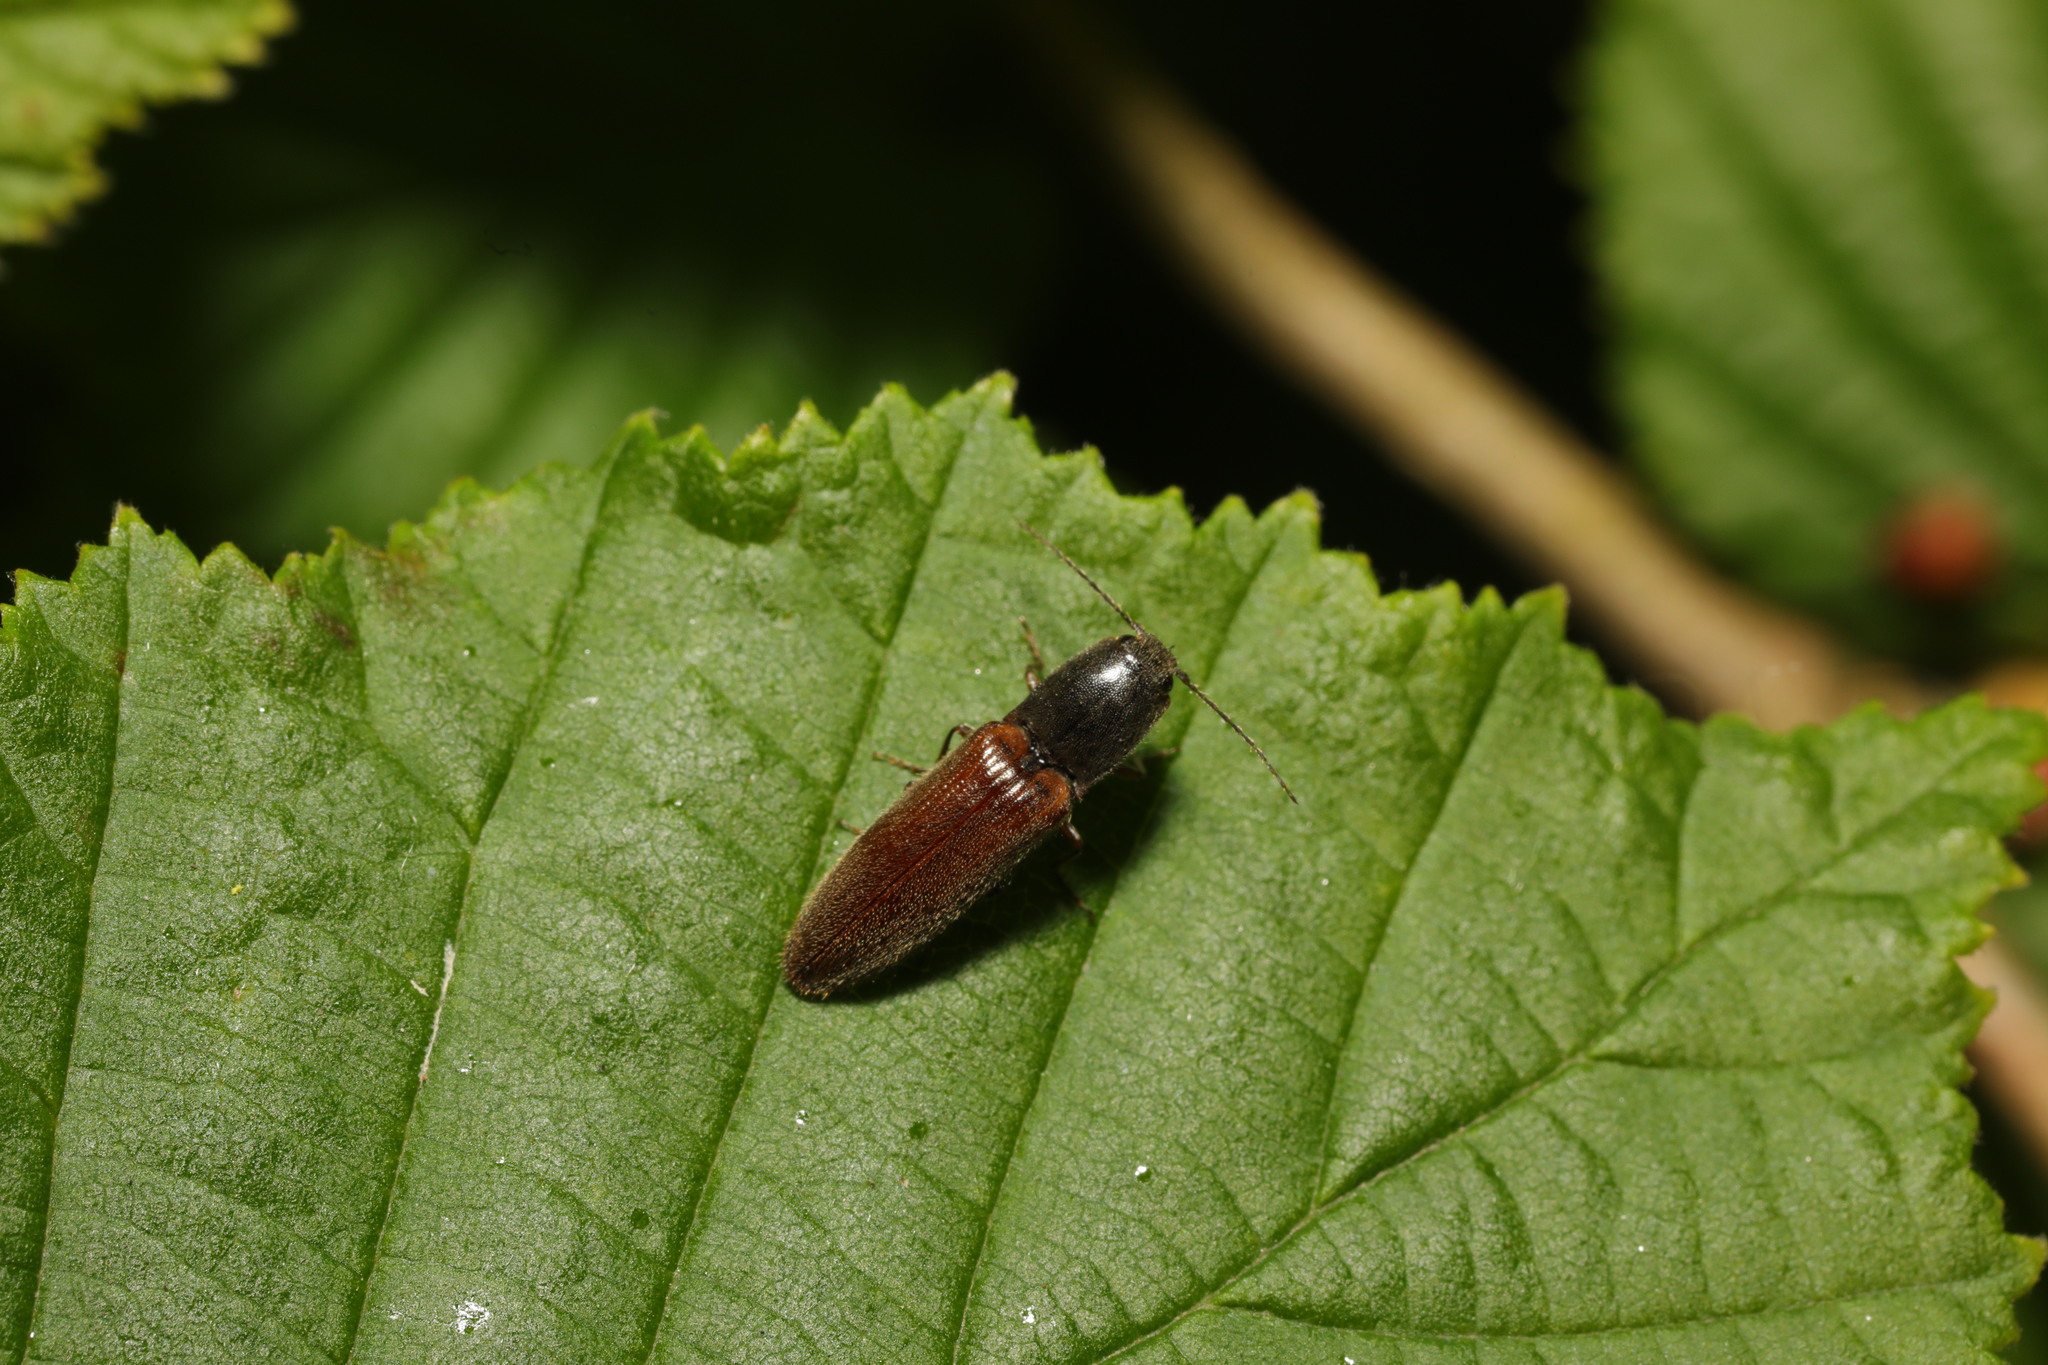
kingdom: Animalia
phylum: Arthropoda
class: Insecta
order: Coleoptera
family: Elateridae
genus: Athous
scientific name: Athous haemorrhoidalis
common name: Red-brown click beetle
